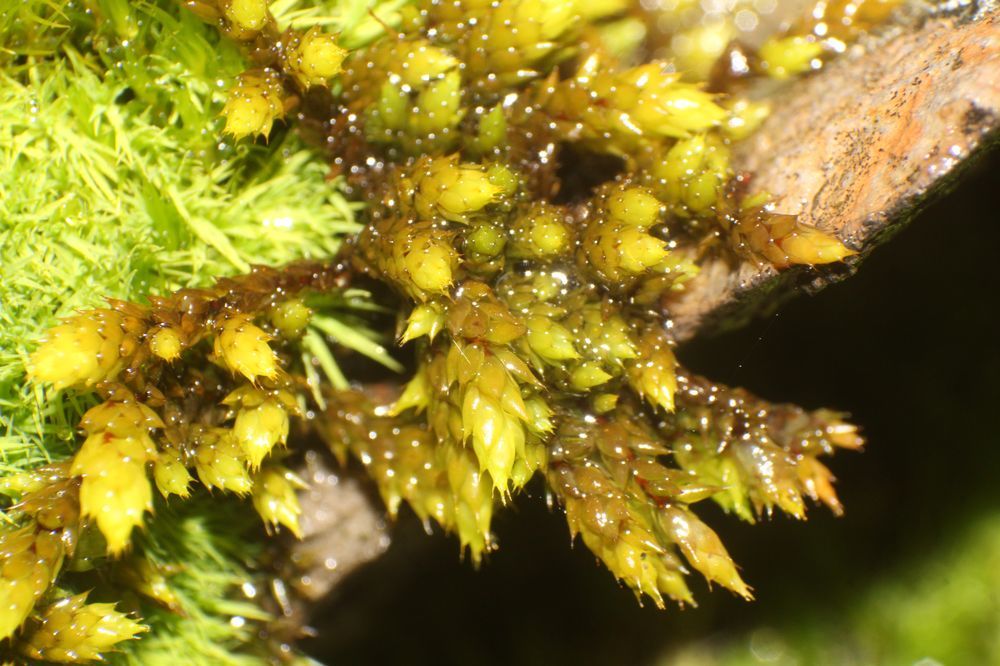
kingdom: Plantae
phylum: Bryophyta
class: Bryopsida
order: Hedwigiales
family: Hedwigiaceae
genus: Rhacocarpus
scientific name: Rhacocarpus purpurascens
